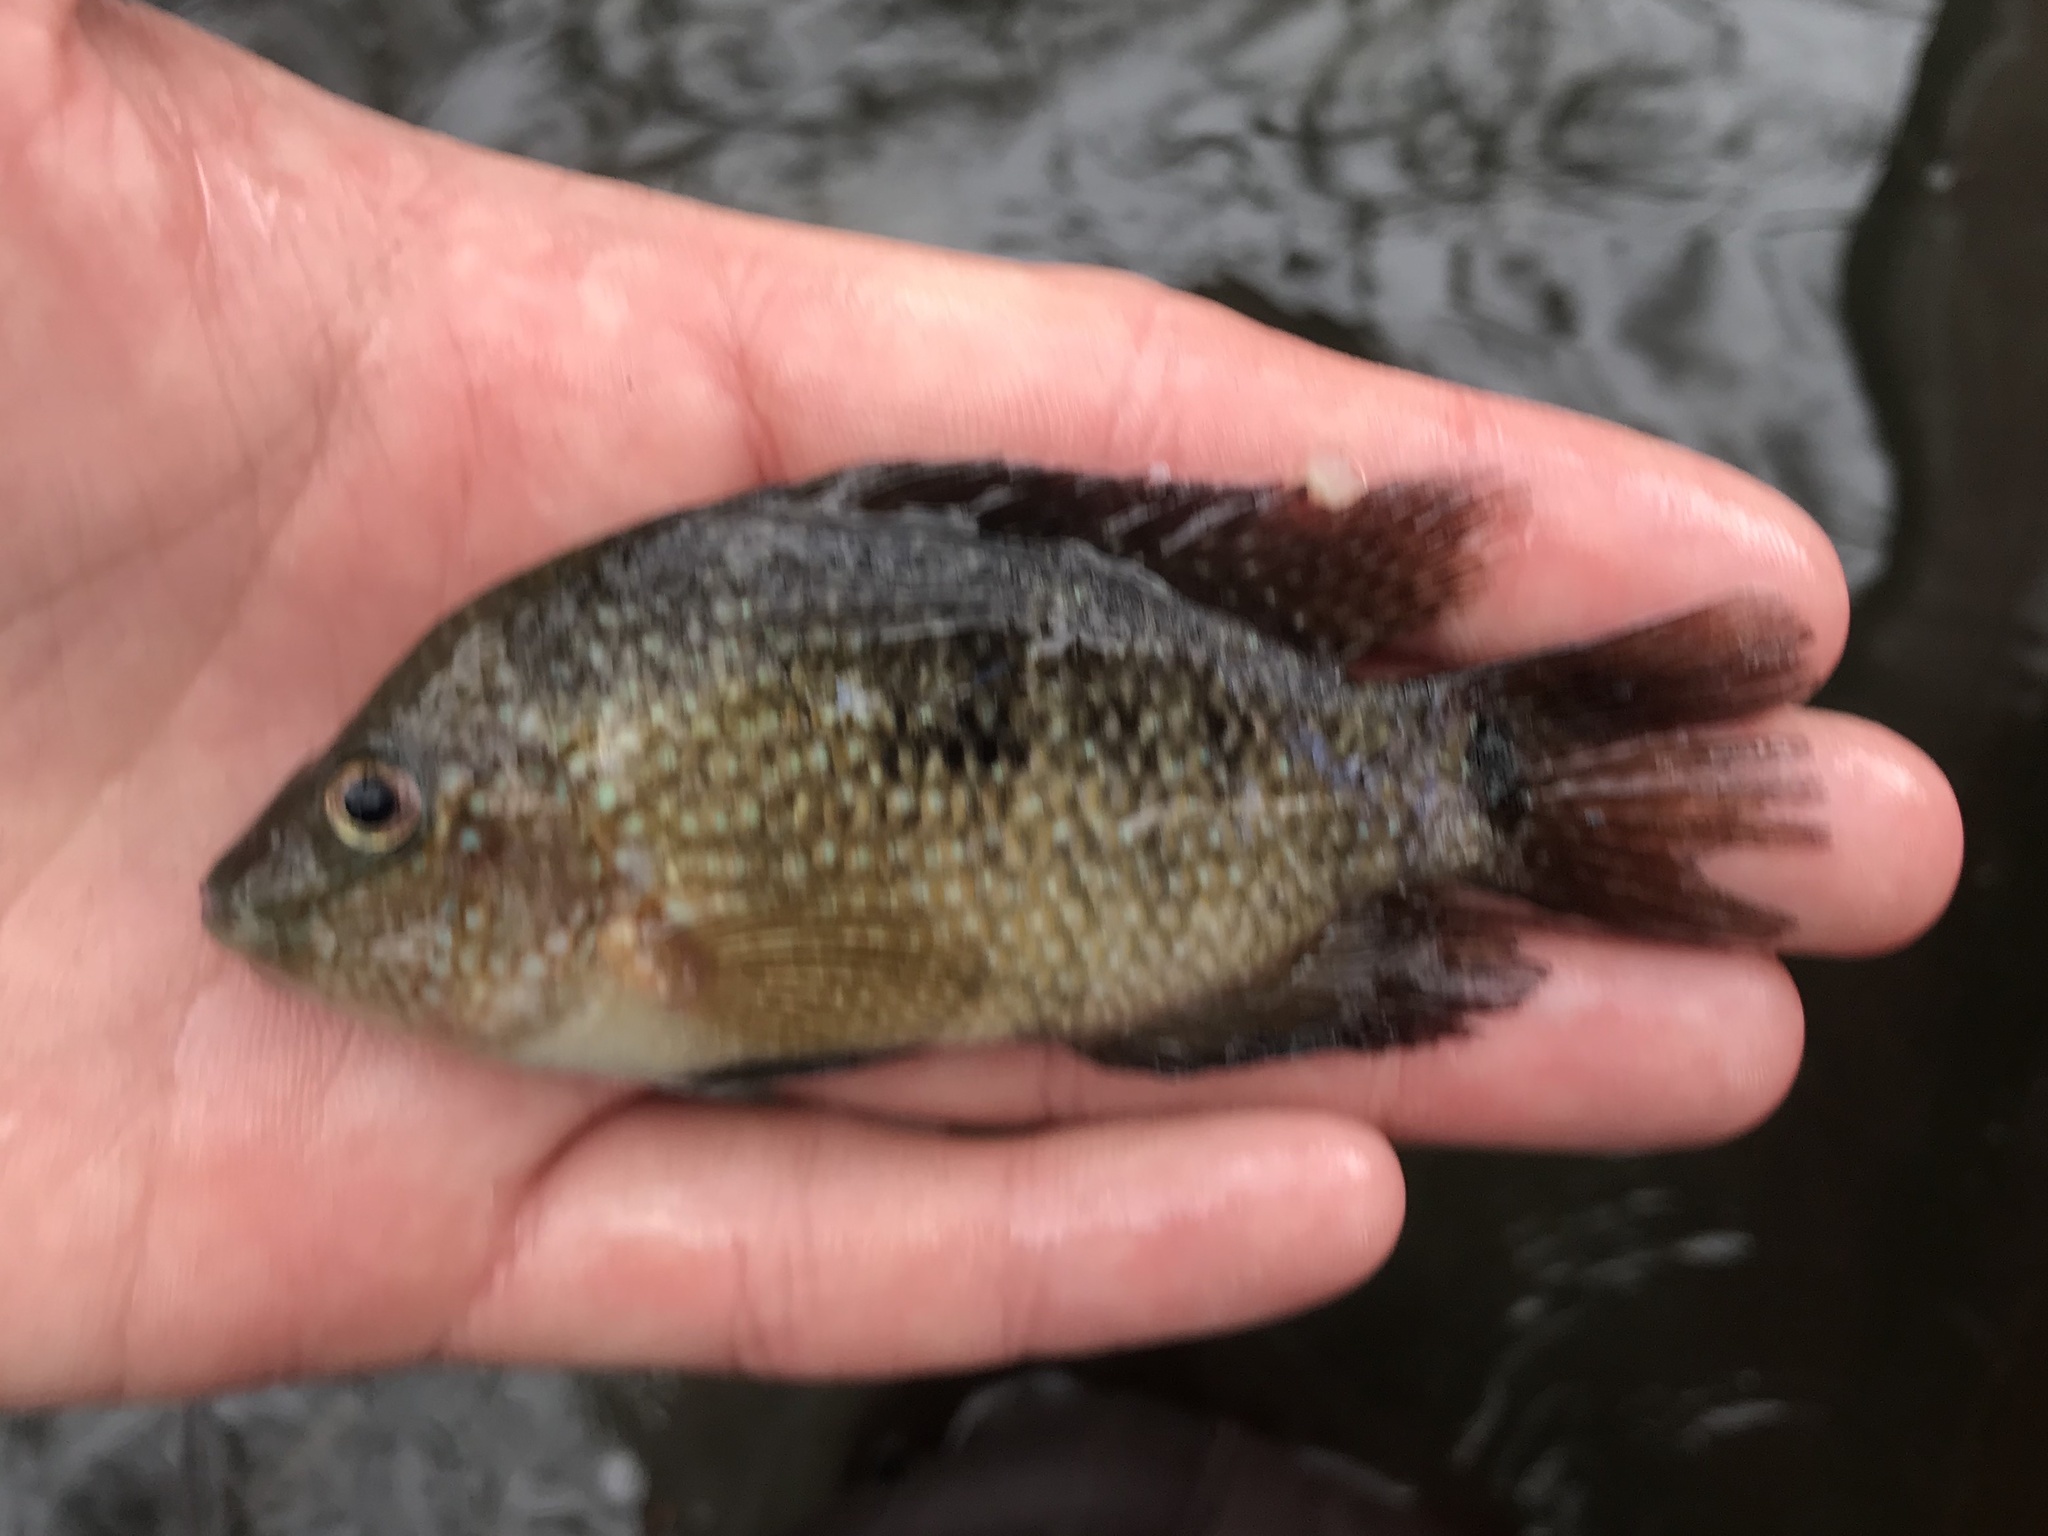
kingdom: Animalia
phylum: Chordata
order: Perciformes
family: Cichlidae
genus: Herichthys
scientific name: Herichthys cyanoguttatus
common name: Rio grande cichlid
